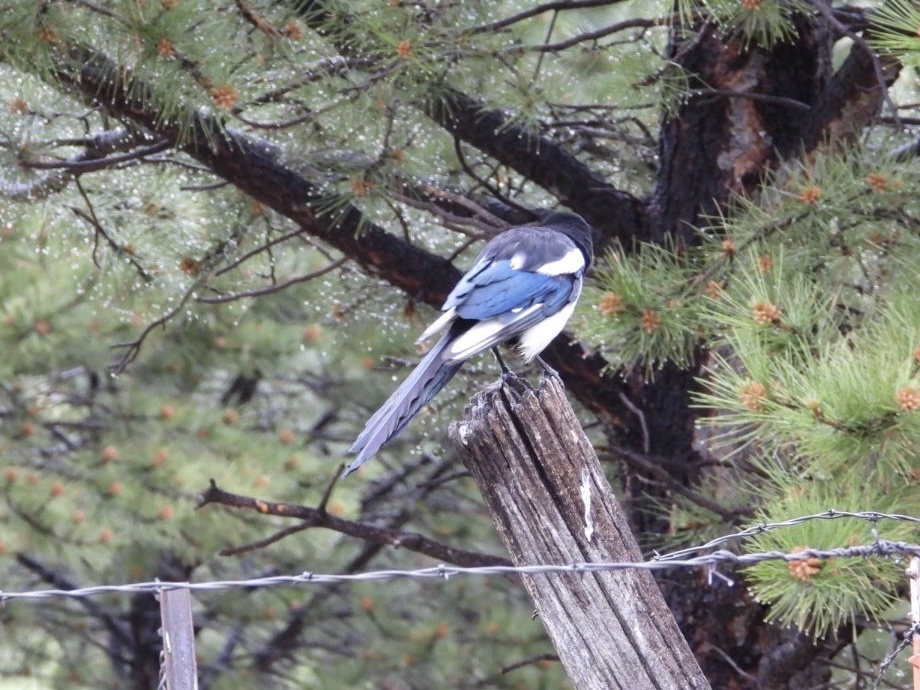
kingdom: Animalia
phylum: Chordata
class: Aves
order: Passeriformes
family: Corvidae
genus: Pica
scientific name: Pica hudsonia
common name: Black-billed magpie
